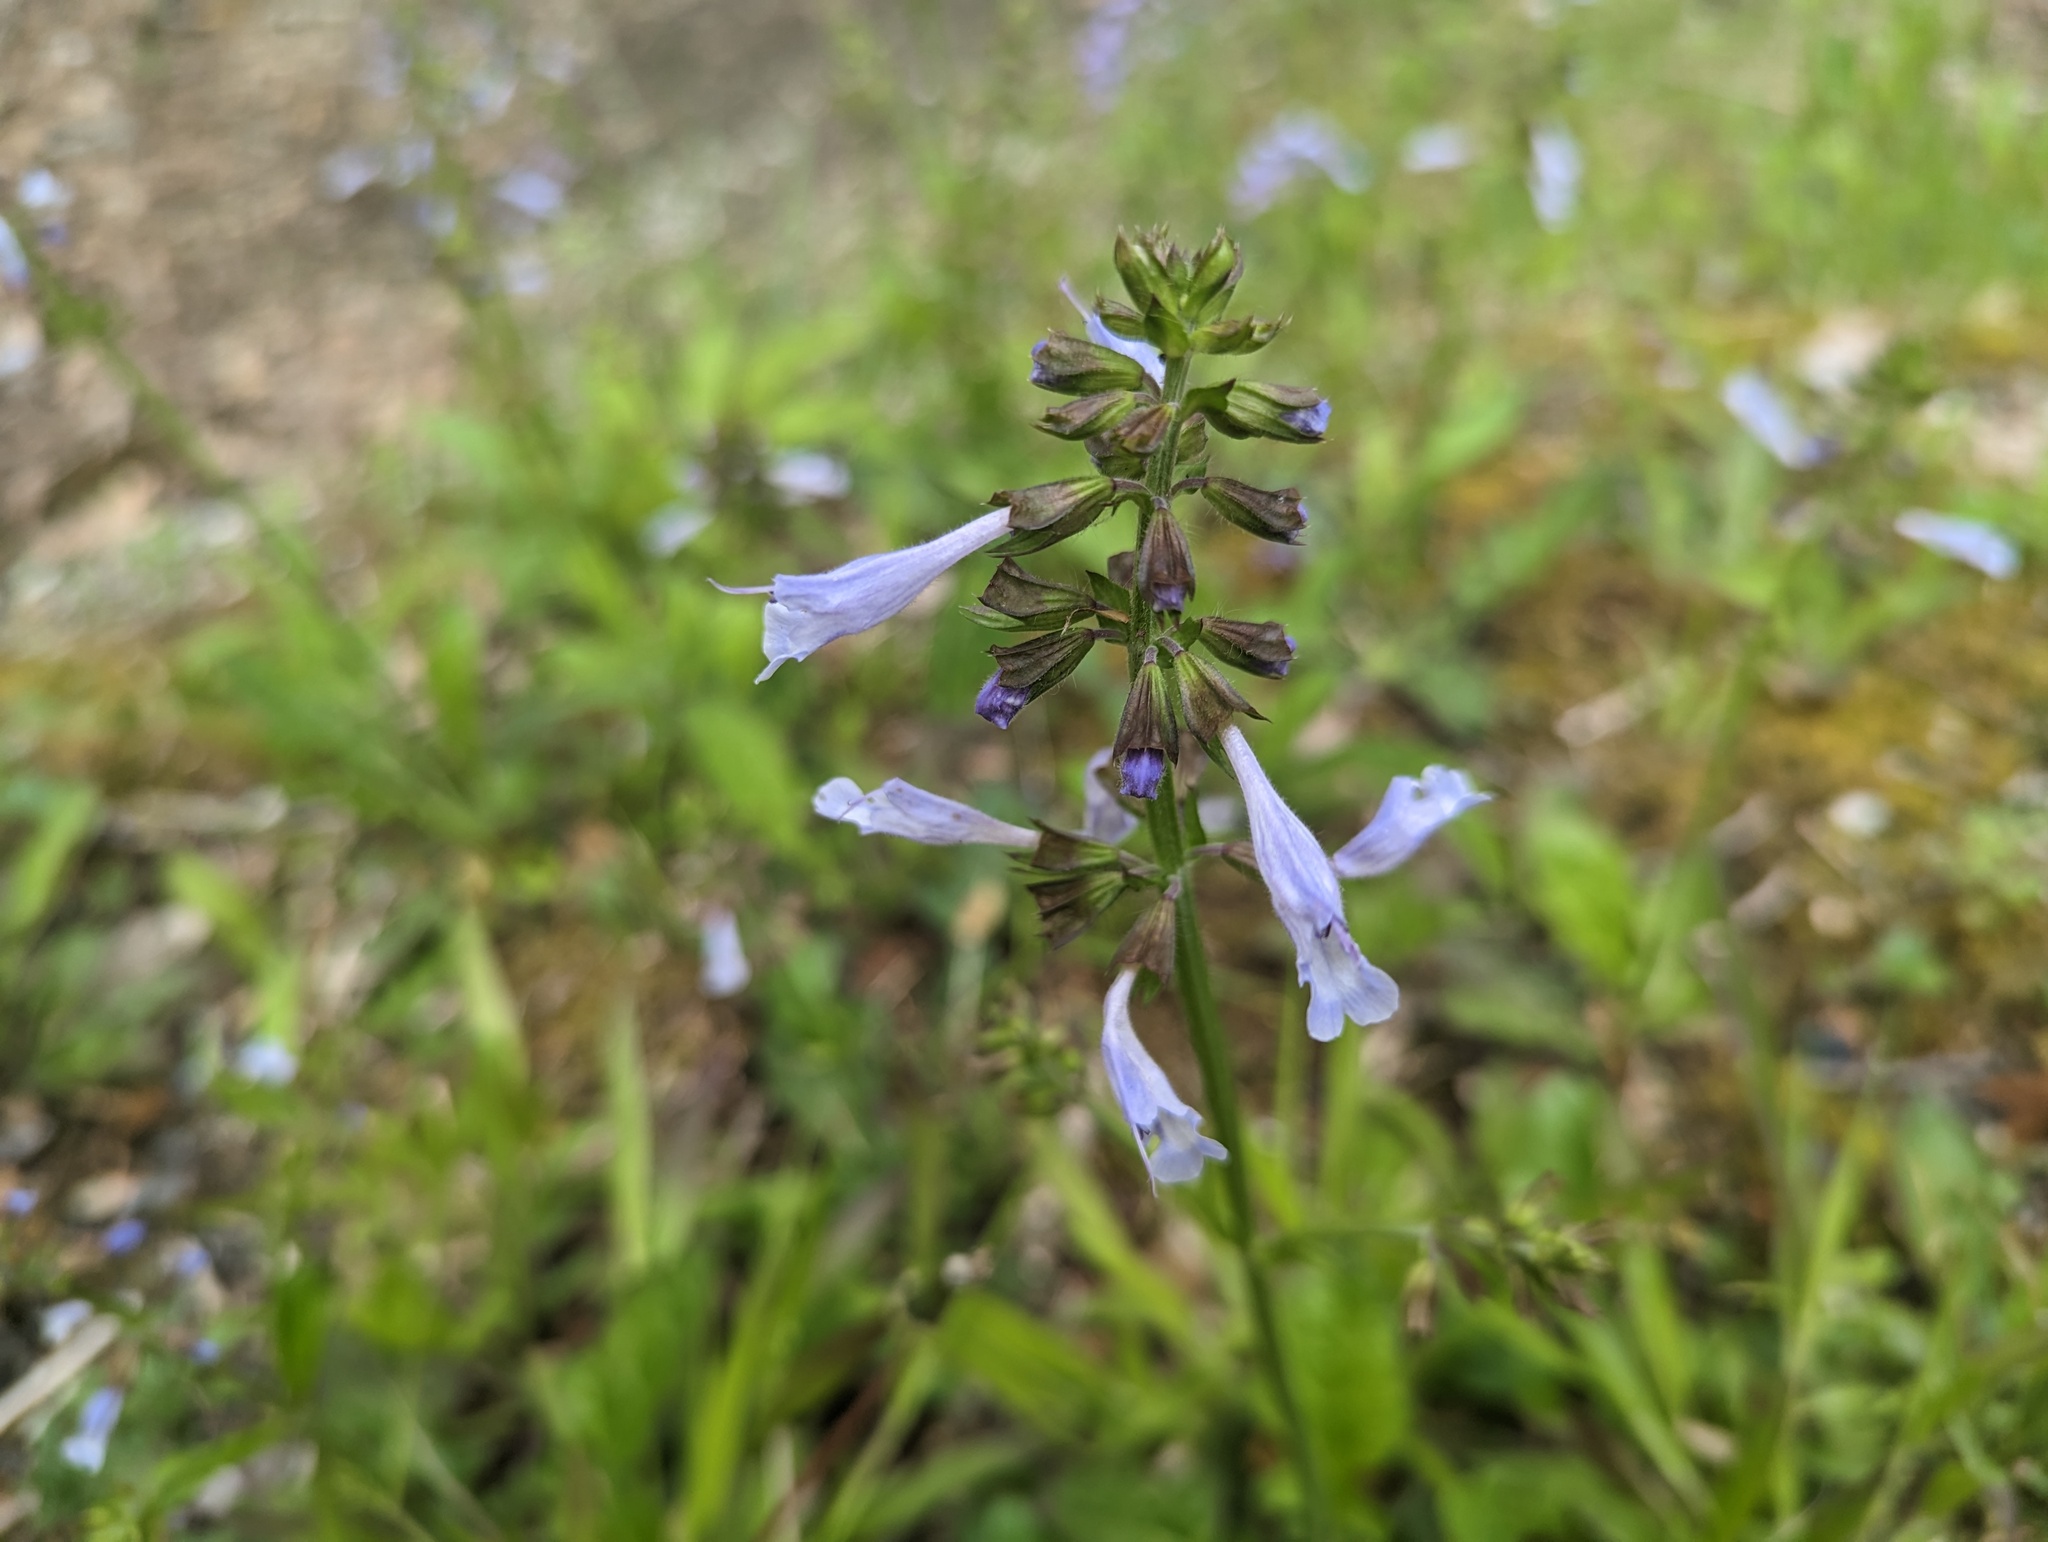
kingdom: Plantae
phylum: Tracheophyta
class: Magnoliopsida
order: Lamiales
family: Lamiaceae
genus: Salvia
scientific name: Salvia lyrata
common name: Cancerweed
